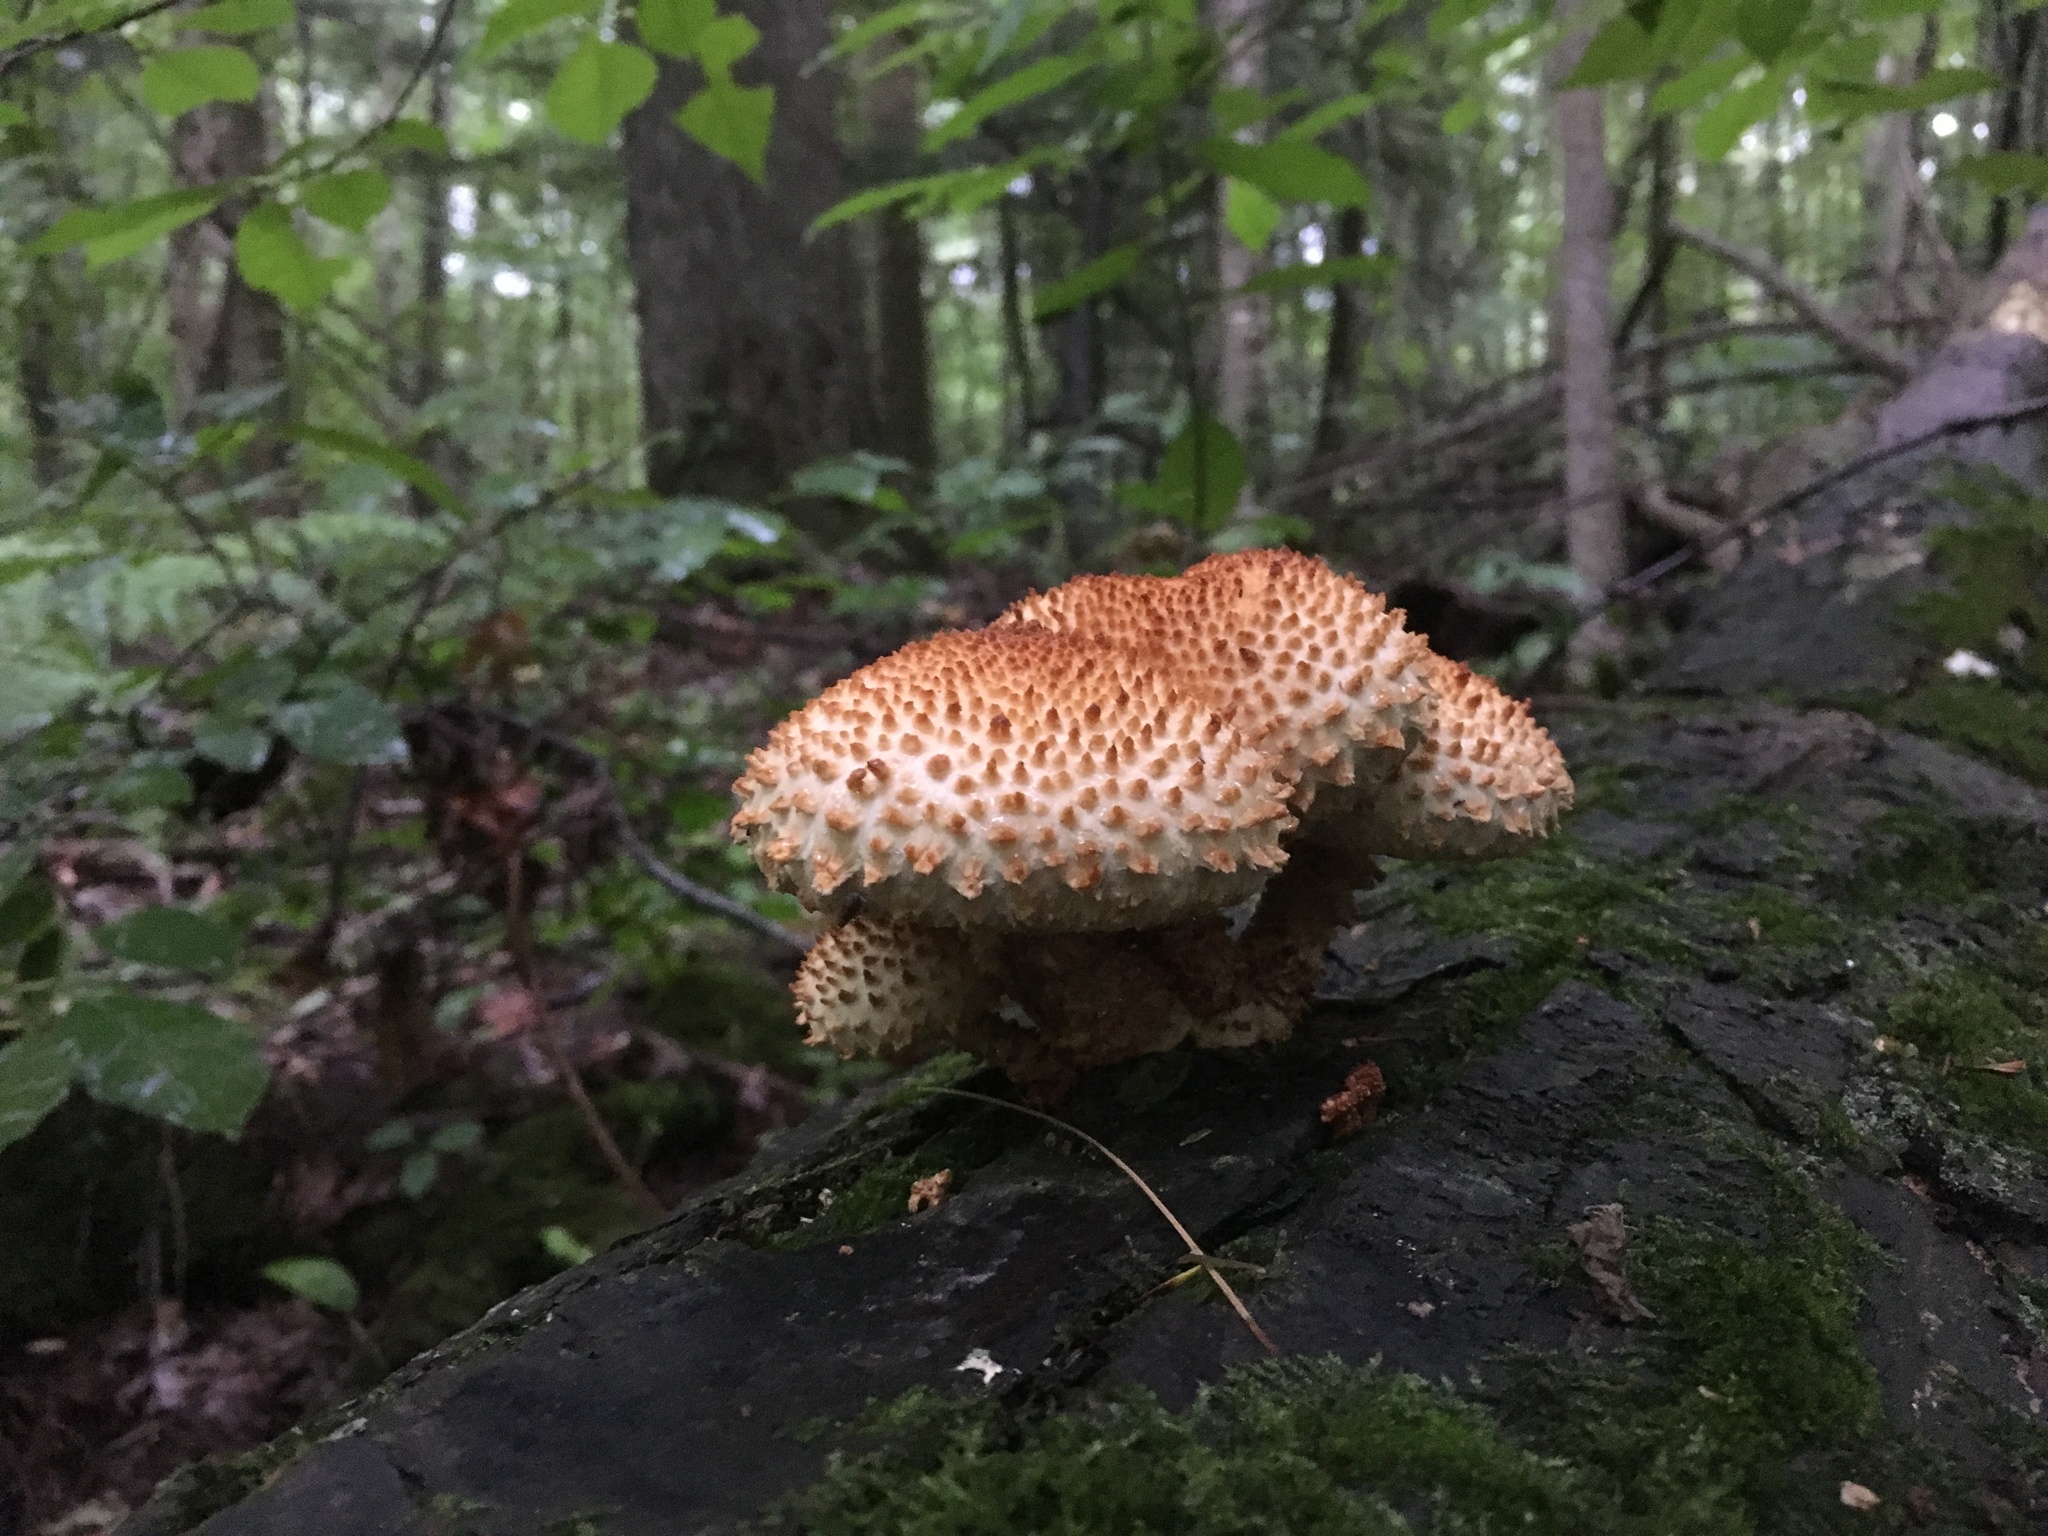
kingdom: Fungi
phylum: Basidiomycota
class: Agaricomycetes
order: Agaricales
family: Strophariaceae
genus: Pholiota
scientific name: Pholiota squarrosoides
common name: Sharp-scaly pholiota
